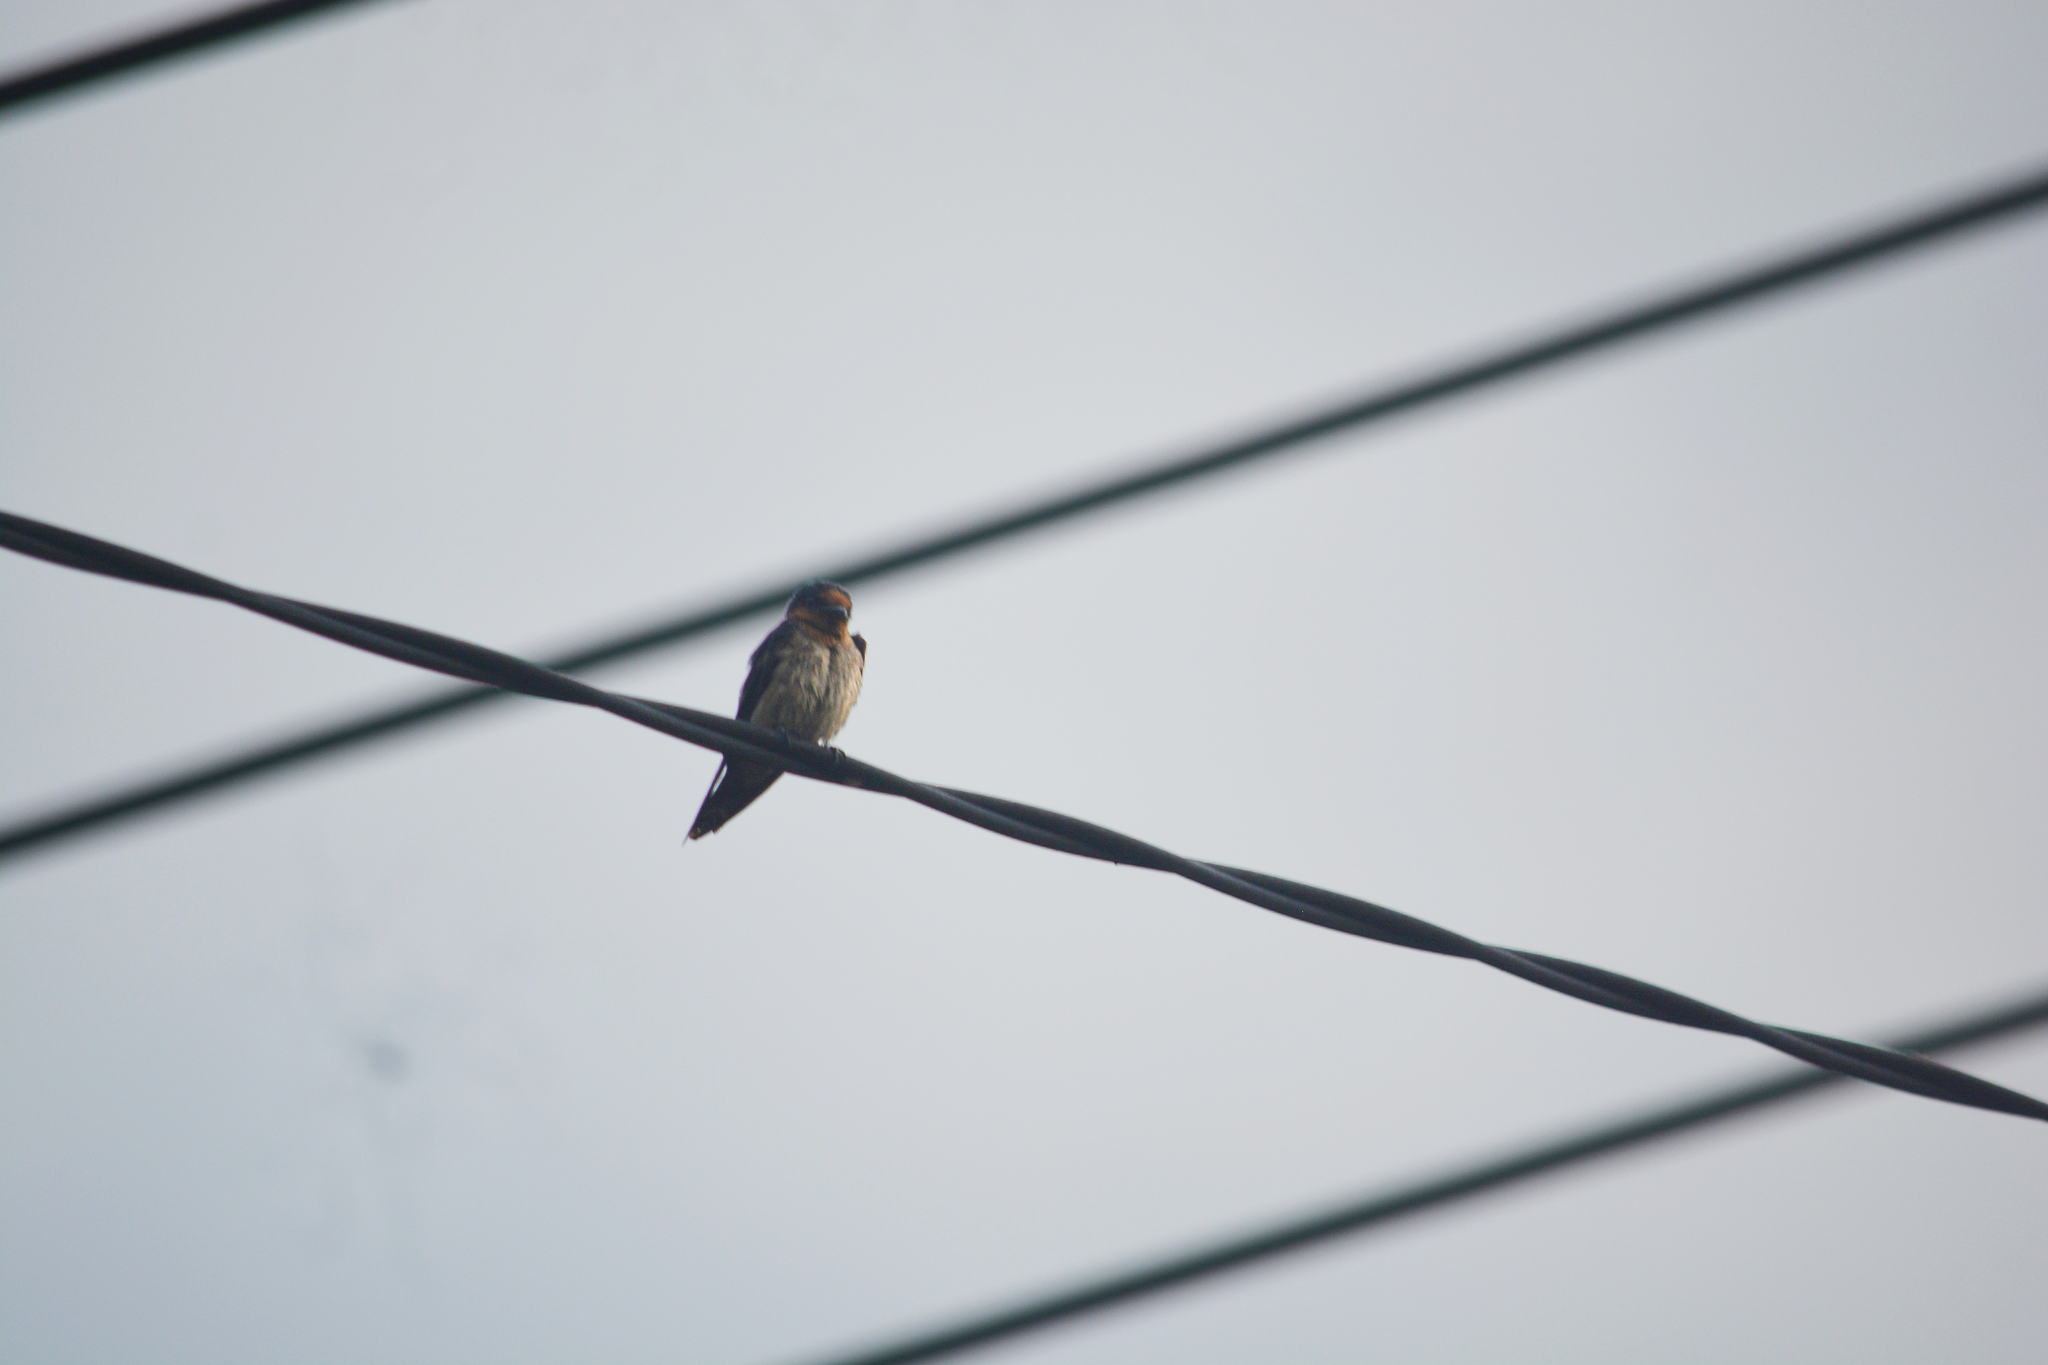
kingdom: Animalia
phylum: Chordata
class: Aves
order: Passeriformes
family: Hirundinidae
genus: Hirundo
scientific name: Hirundo tahitica
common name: Pacific swallow
